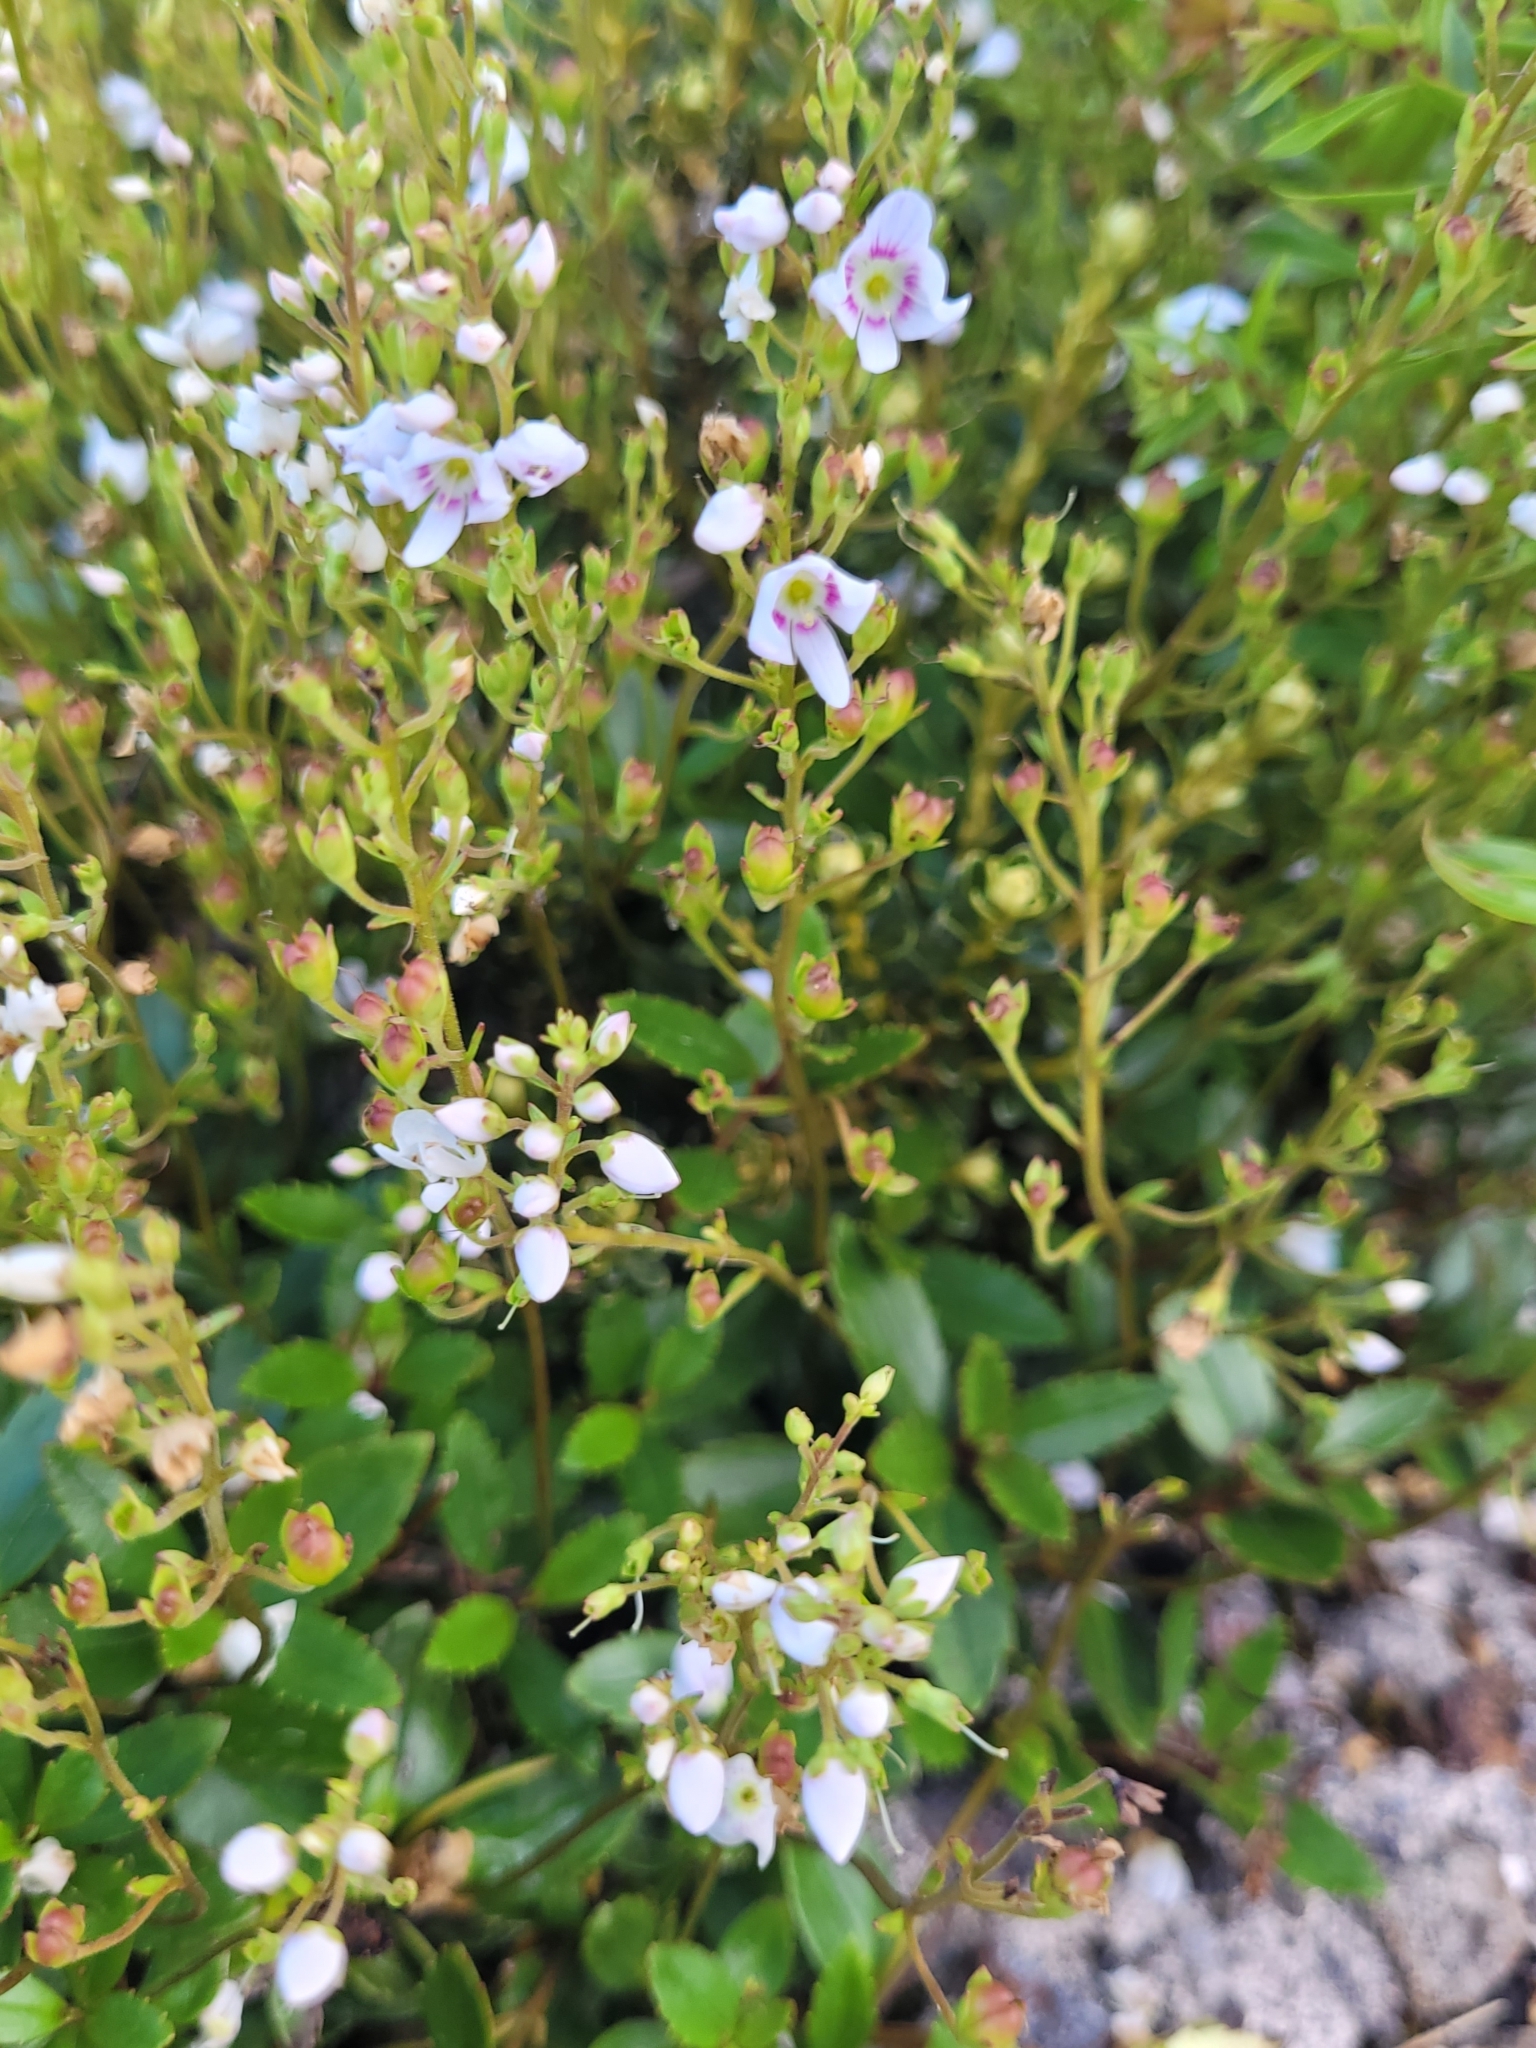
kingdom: Plantae
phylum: Tracheophyta
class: Magnoliopsida
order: Lamiales
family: Plantaginaceae
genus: Veronica
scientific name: Veronica lanceolata
